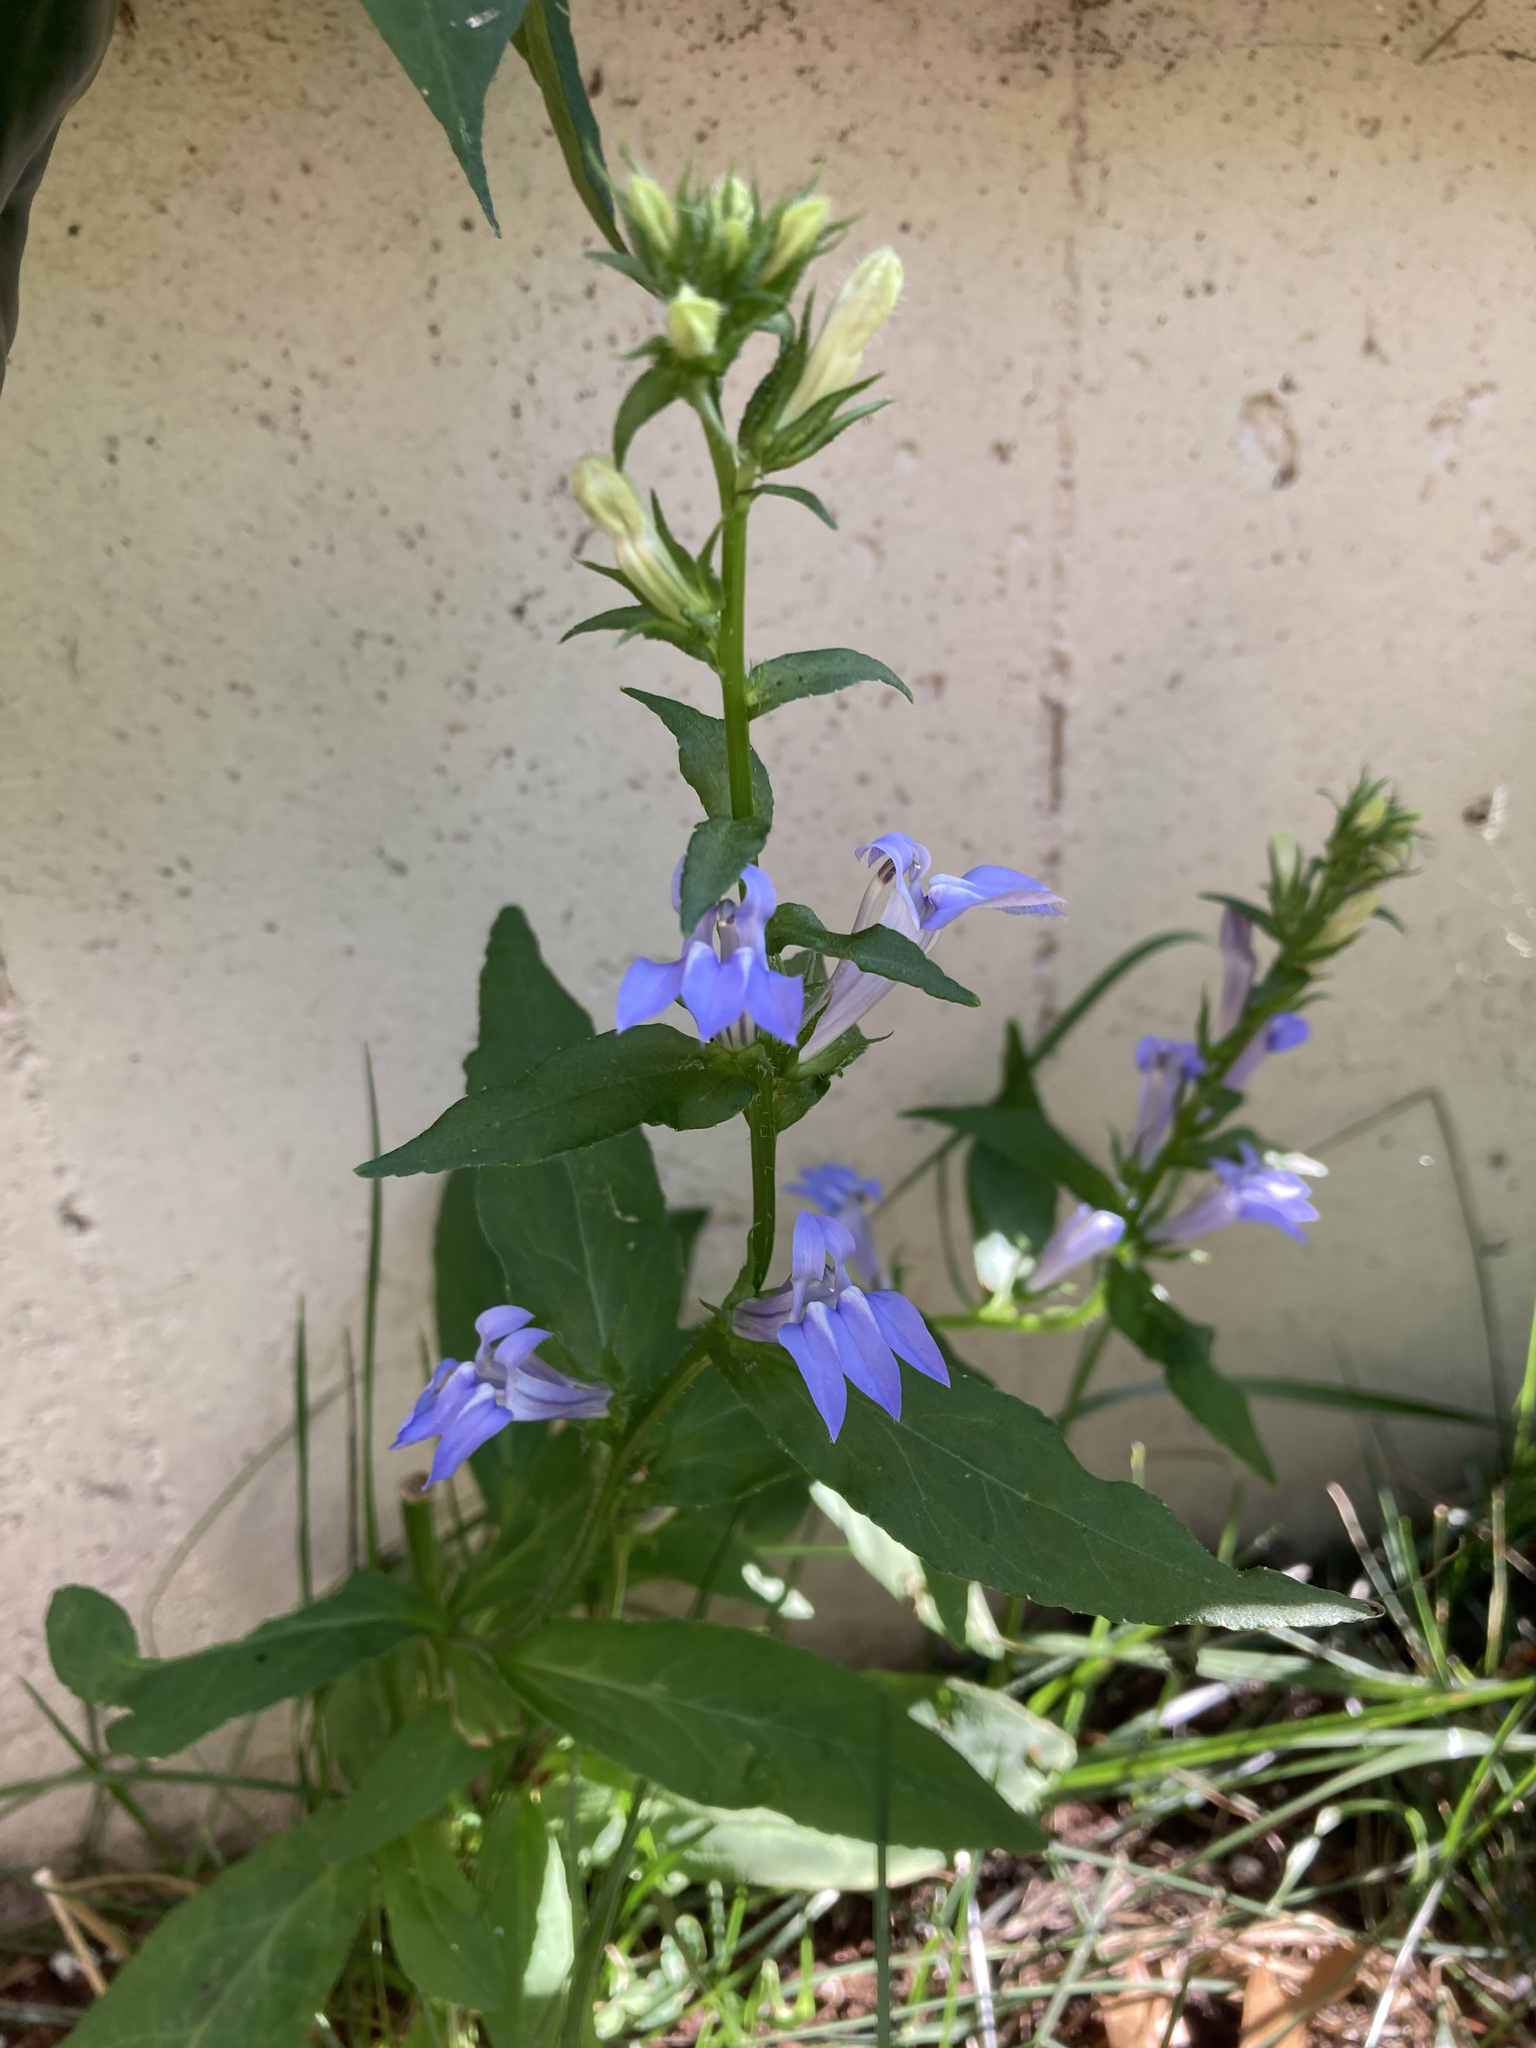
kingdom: Plantae
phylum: Tracheophyta
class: Magnoliopsida
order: Asterales
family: Campanulaceae
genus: Lobelia
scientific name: Lobelia siphilitica
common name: Great lobelia
